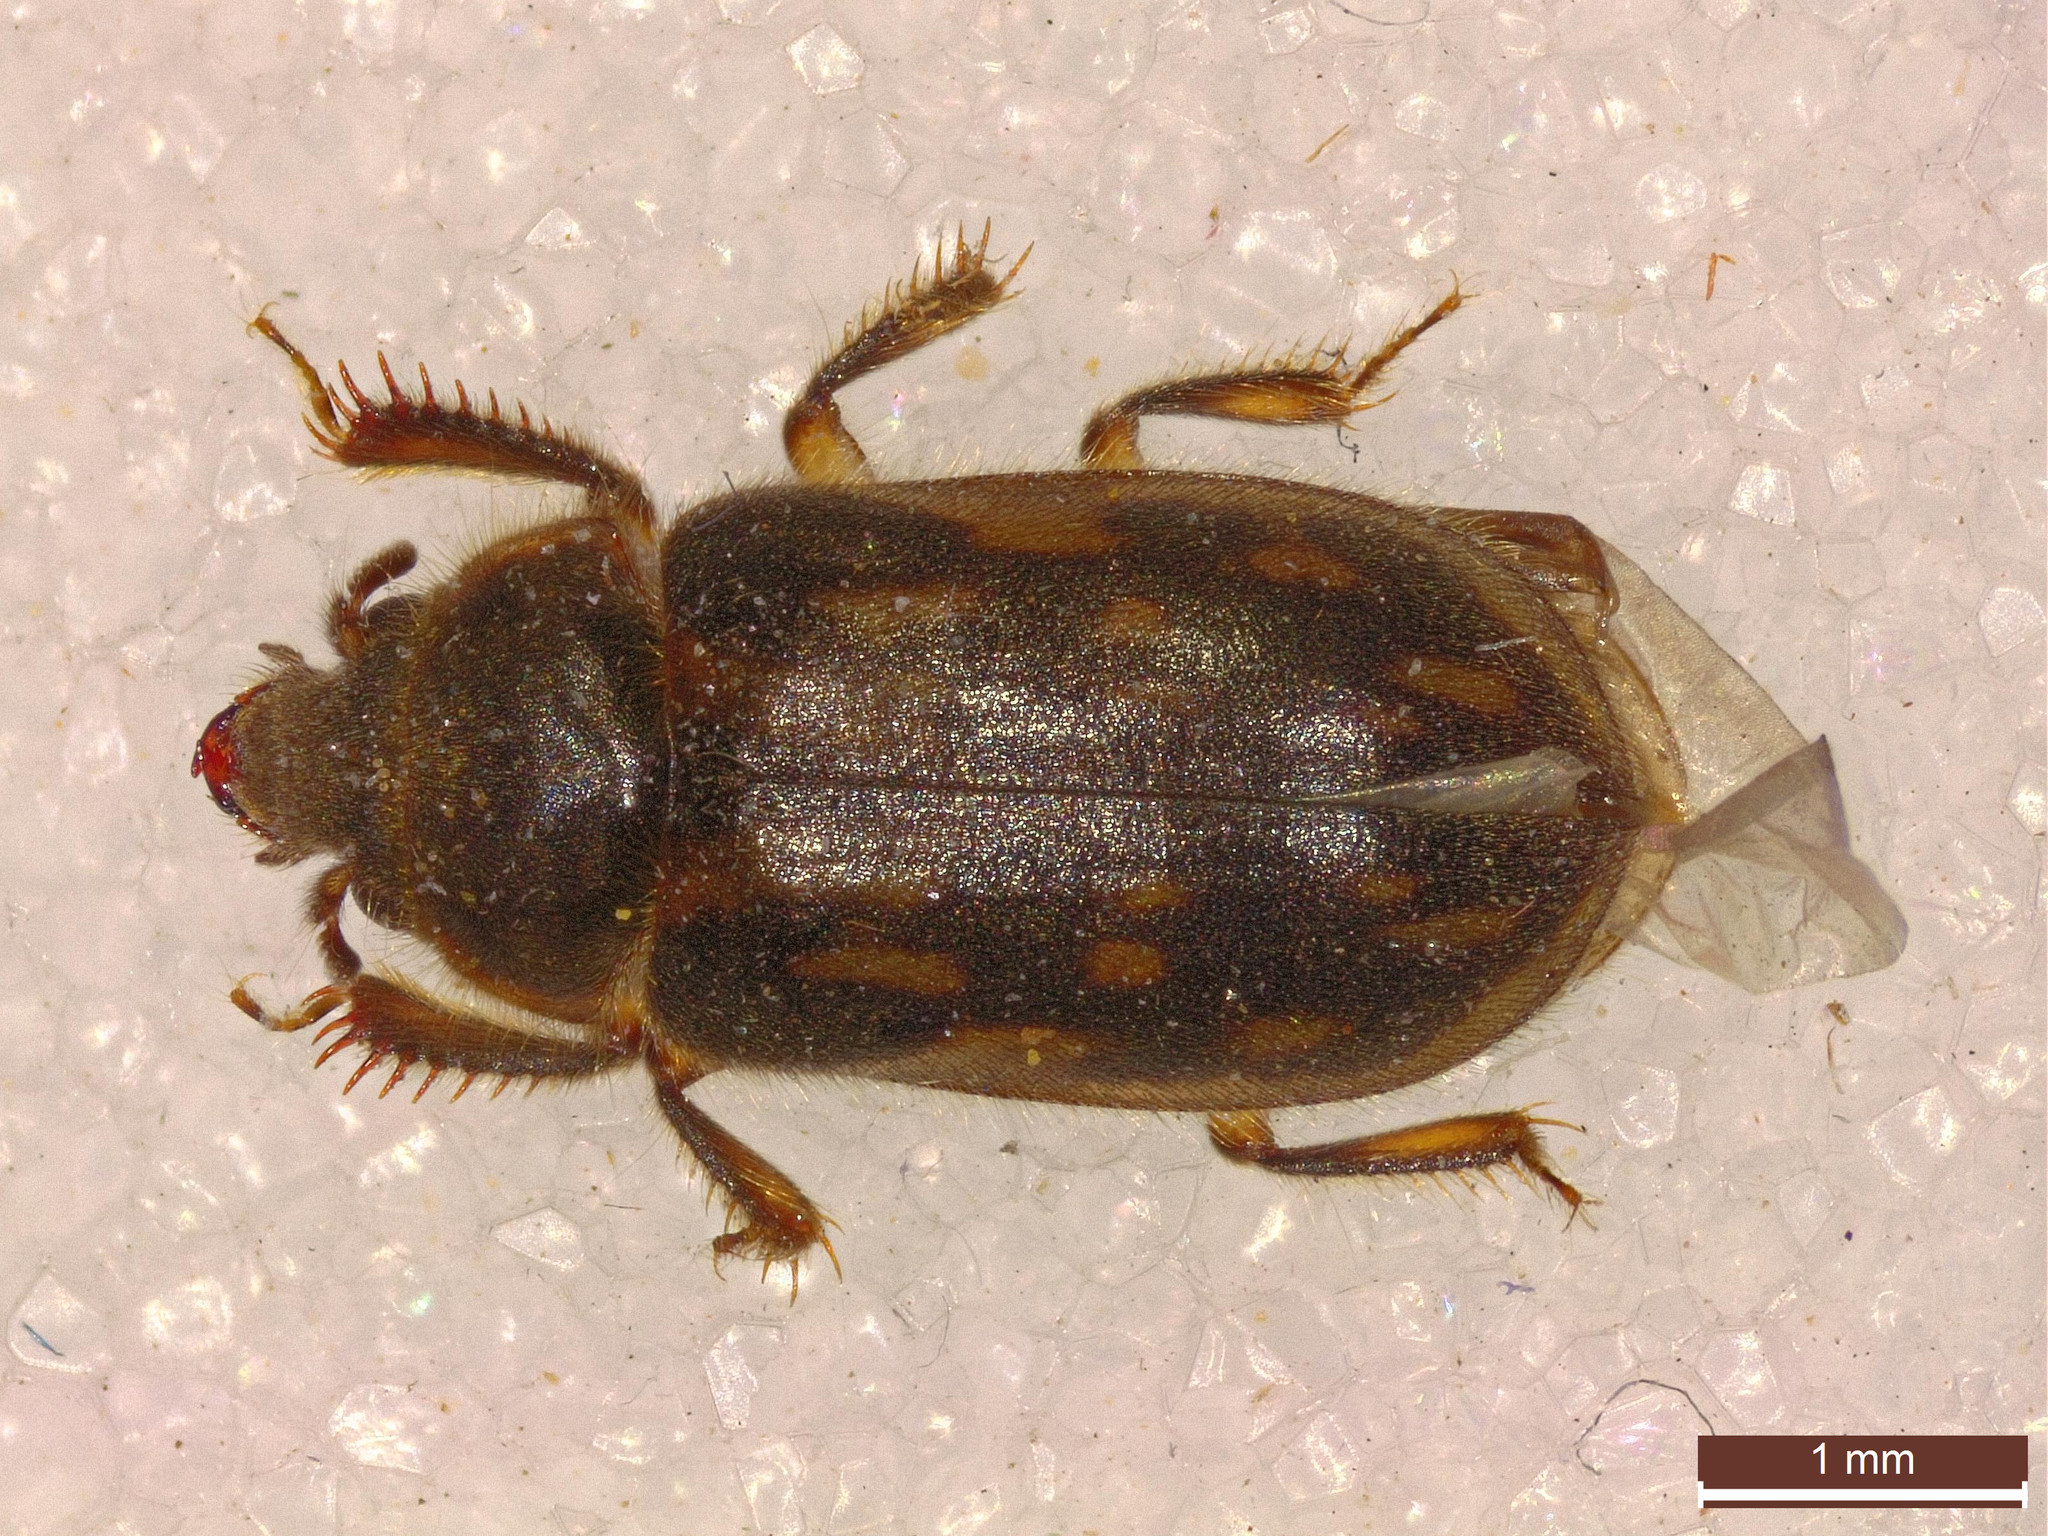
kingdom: Animalia
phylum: Arthropoda
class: Insecta
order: Coleoptera
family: Heteroceridae
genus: Heterocerus
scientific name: Heterocerus fenestratus
